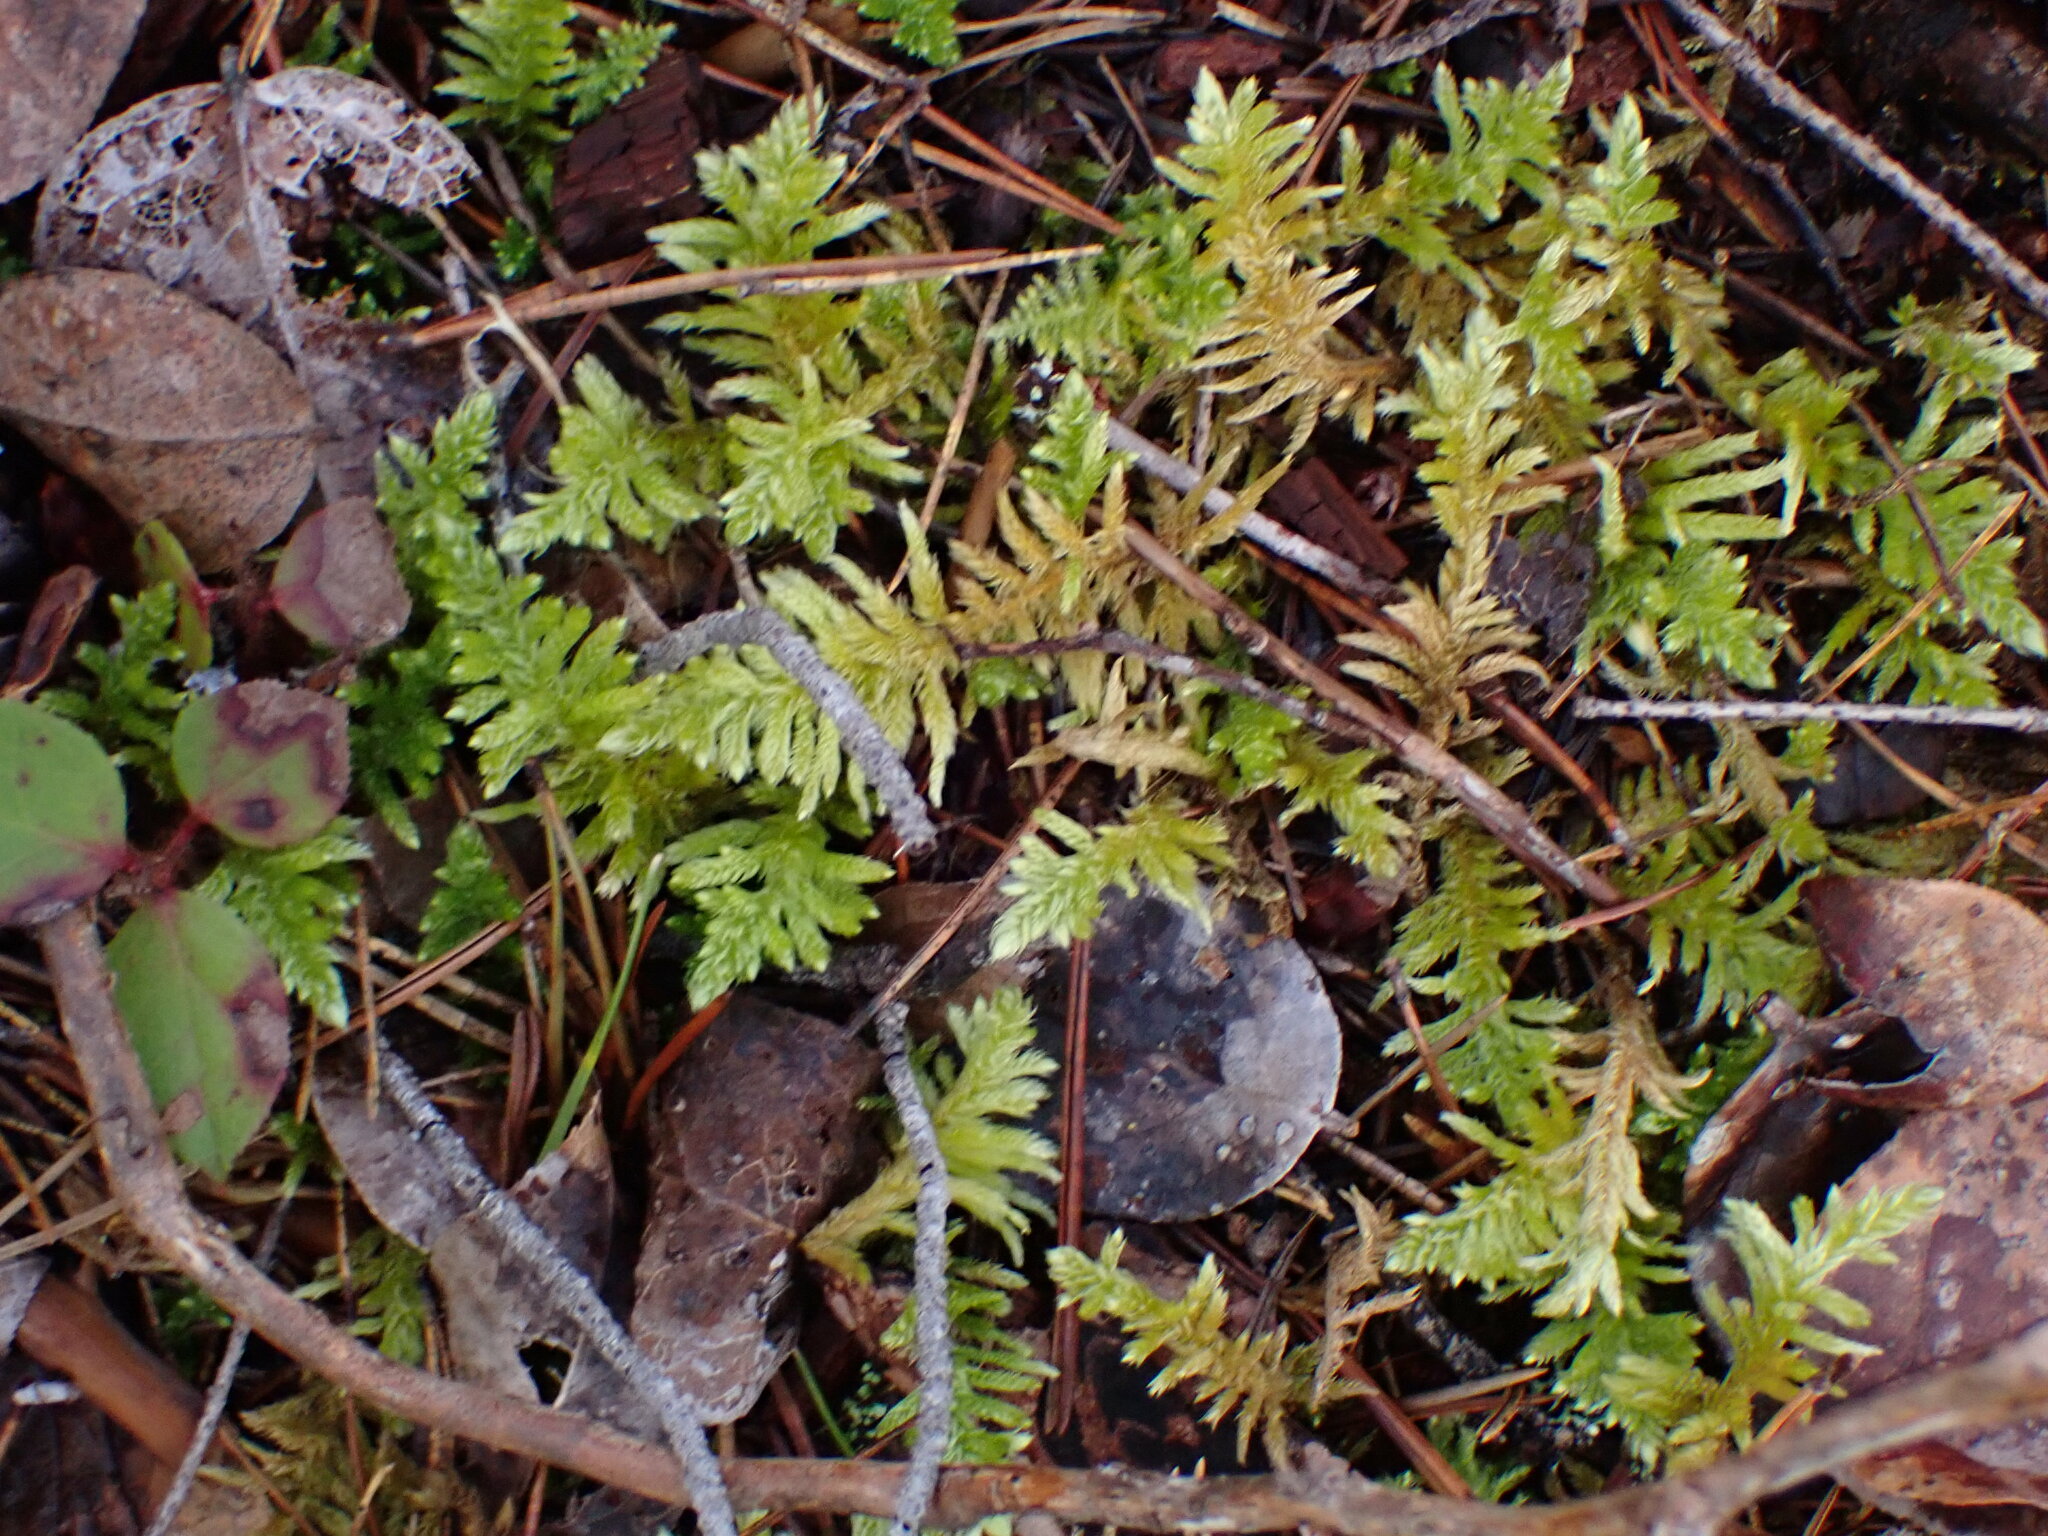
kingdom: Plantae
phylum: Bryophyta
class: Bryopsida
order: Hypnales
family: Brachytheciaceae
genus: Homalothecium
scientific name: Homalothecium megaptilum
